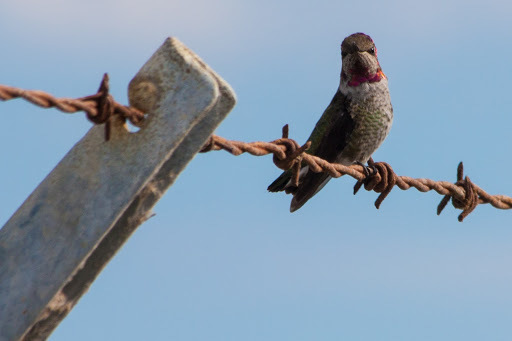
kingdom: Animalia
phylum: Chordata
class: Aves
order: Apodiformes
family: Trochilidae
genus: Calypte
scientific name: Calypte anna
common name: Anna's hummingbird
